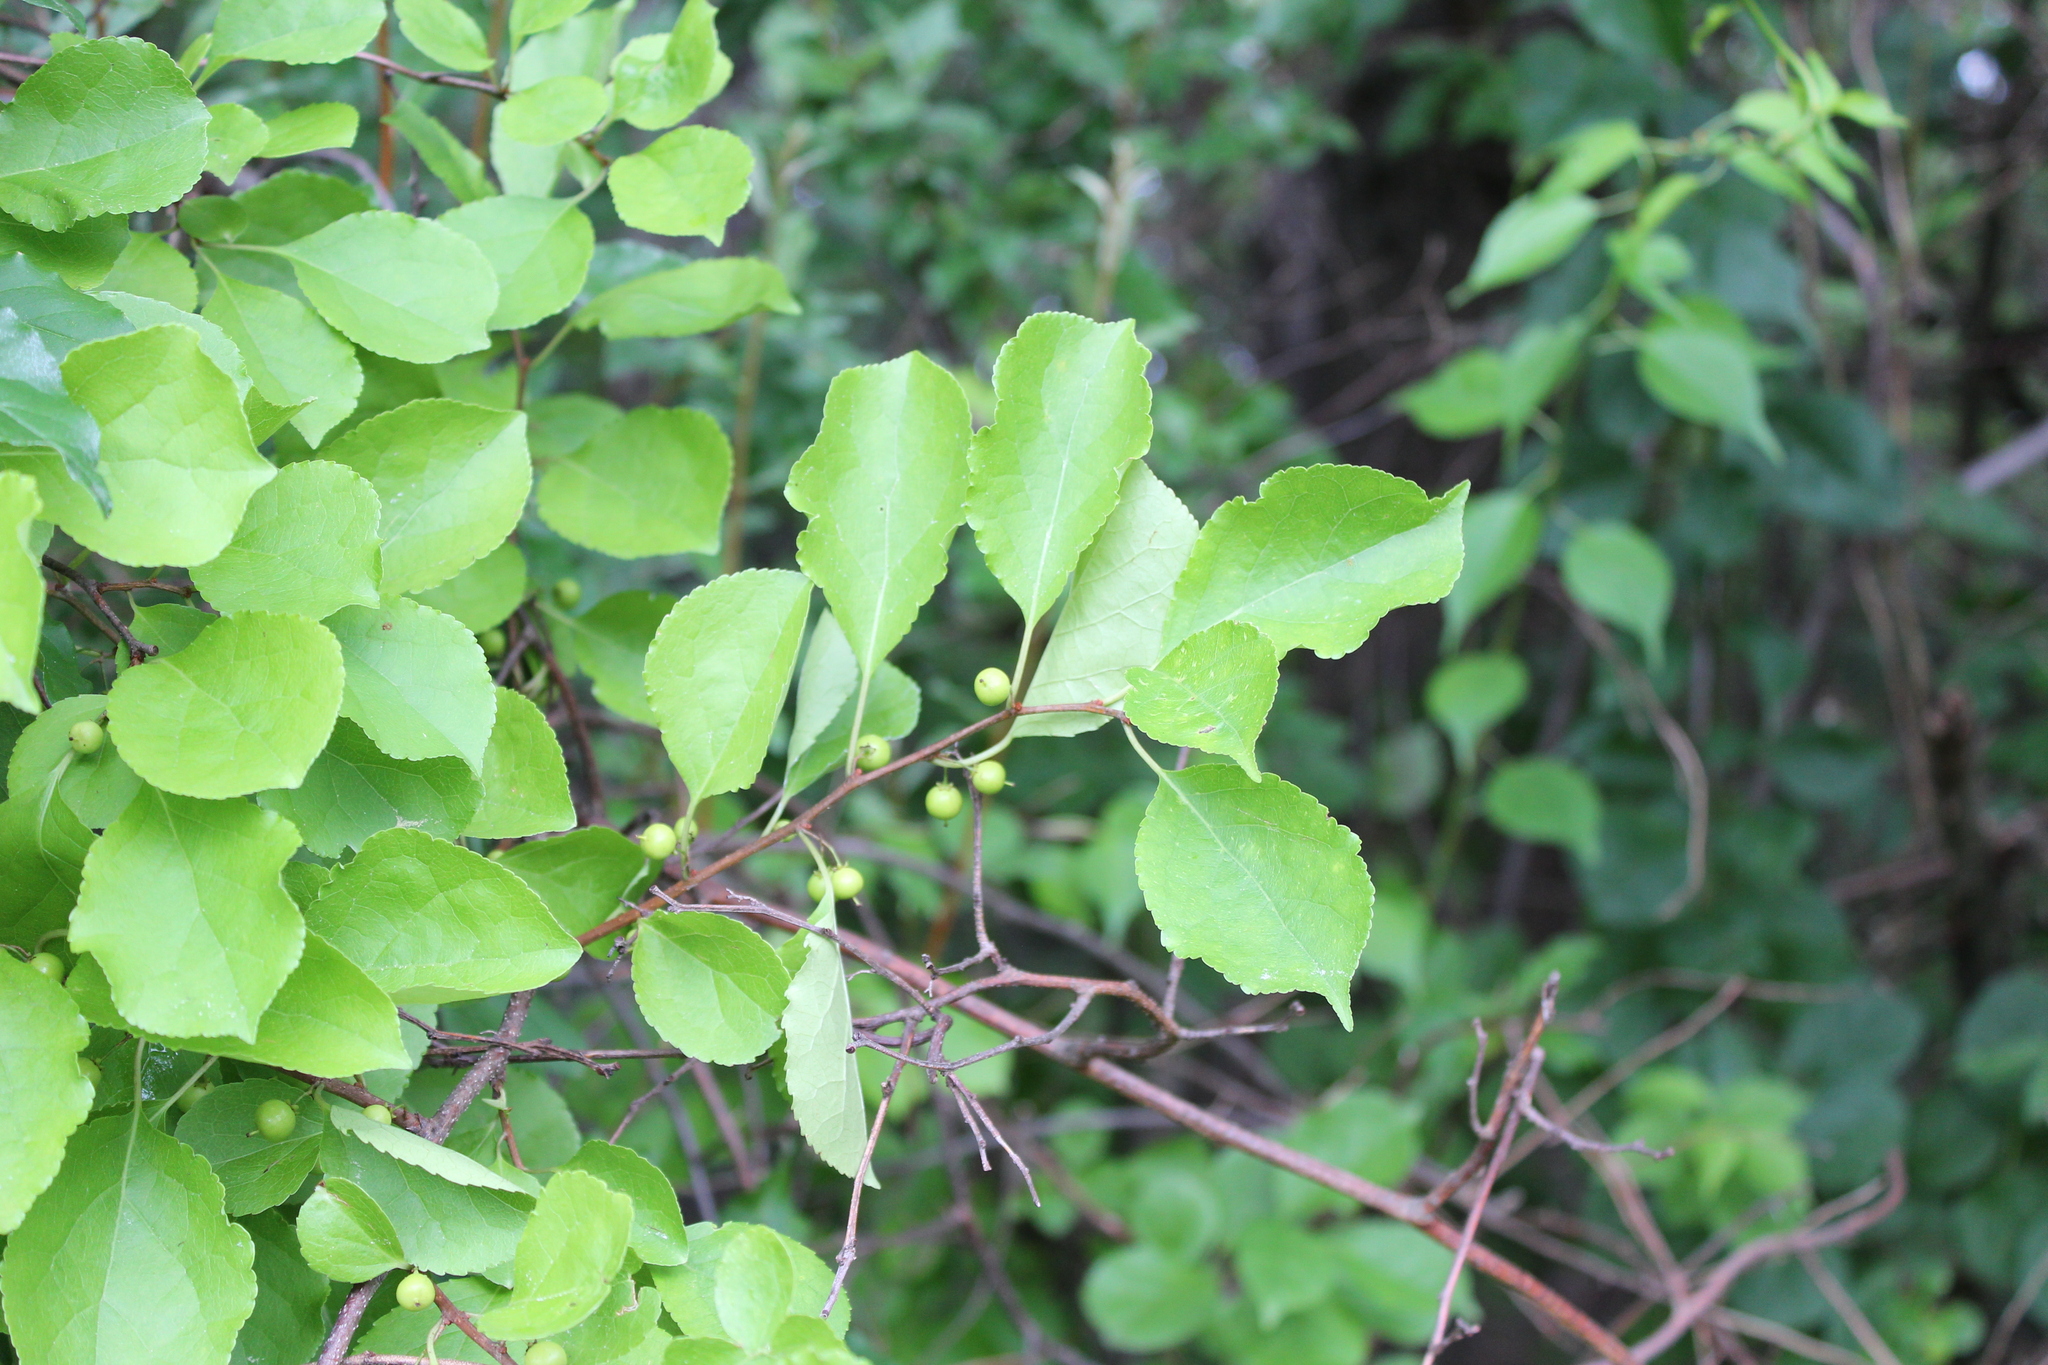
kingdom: Plantae
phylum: Tracheophyta
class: Magnoliopsida
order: Celastrales
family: Celastraceae
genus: Celastrus
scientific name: Celastrus orbiculatus
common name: Oriental bittersweet
